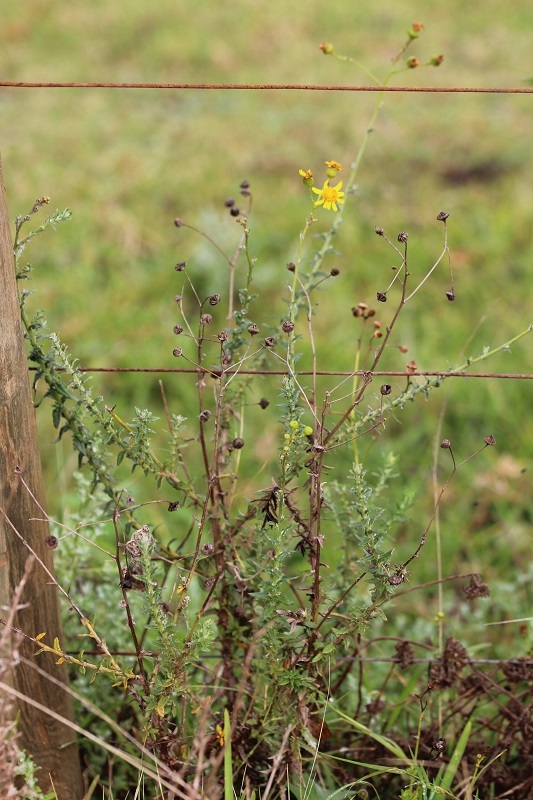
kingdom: Plantae
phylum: Tracheophyta
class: Magnoliopsida
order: Asterales
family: Asteraceae
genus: Senecio
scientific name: Senecio ilicifolius
